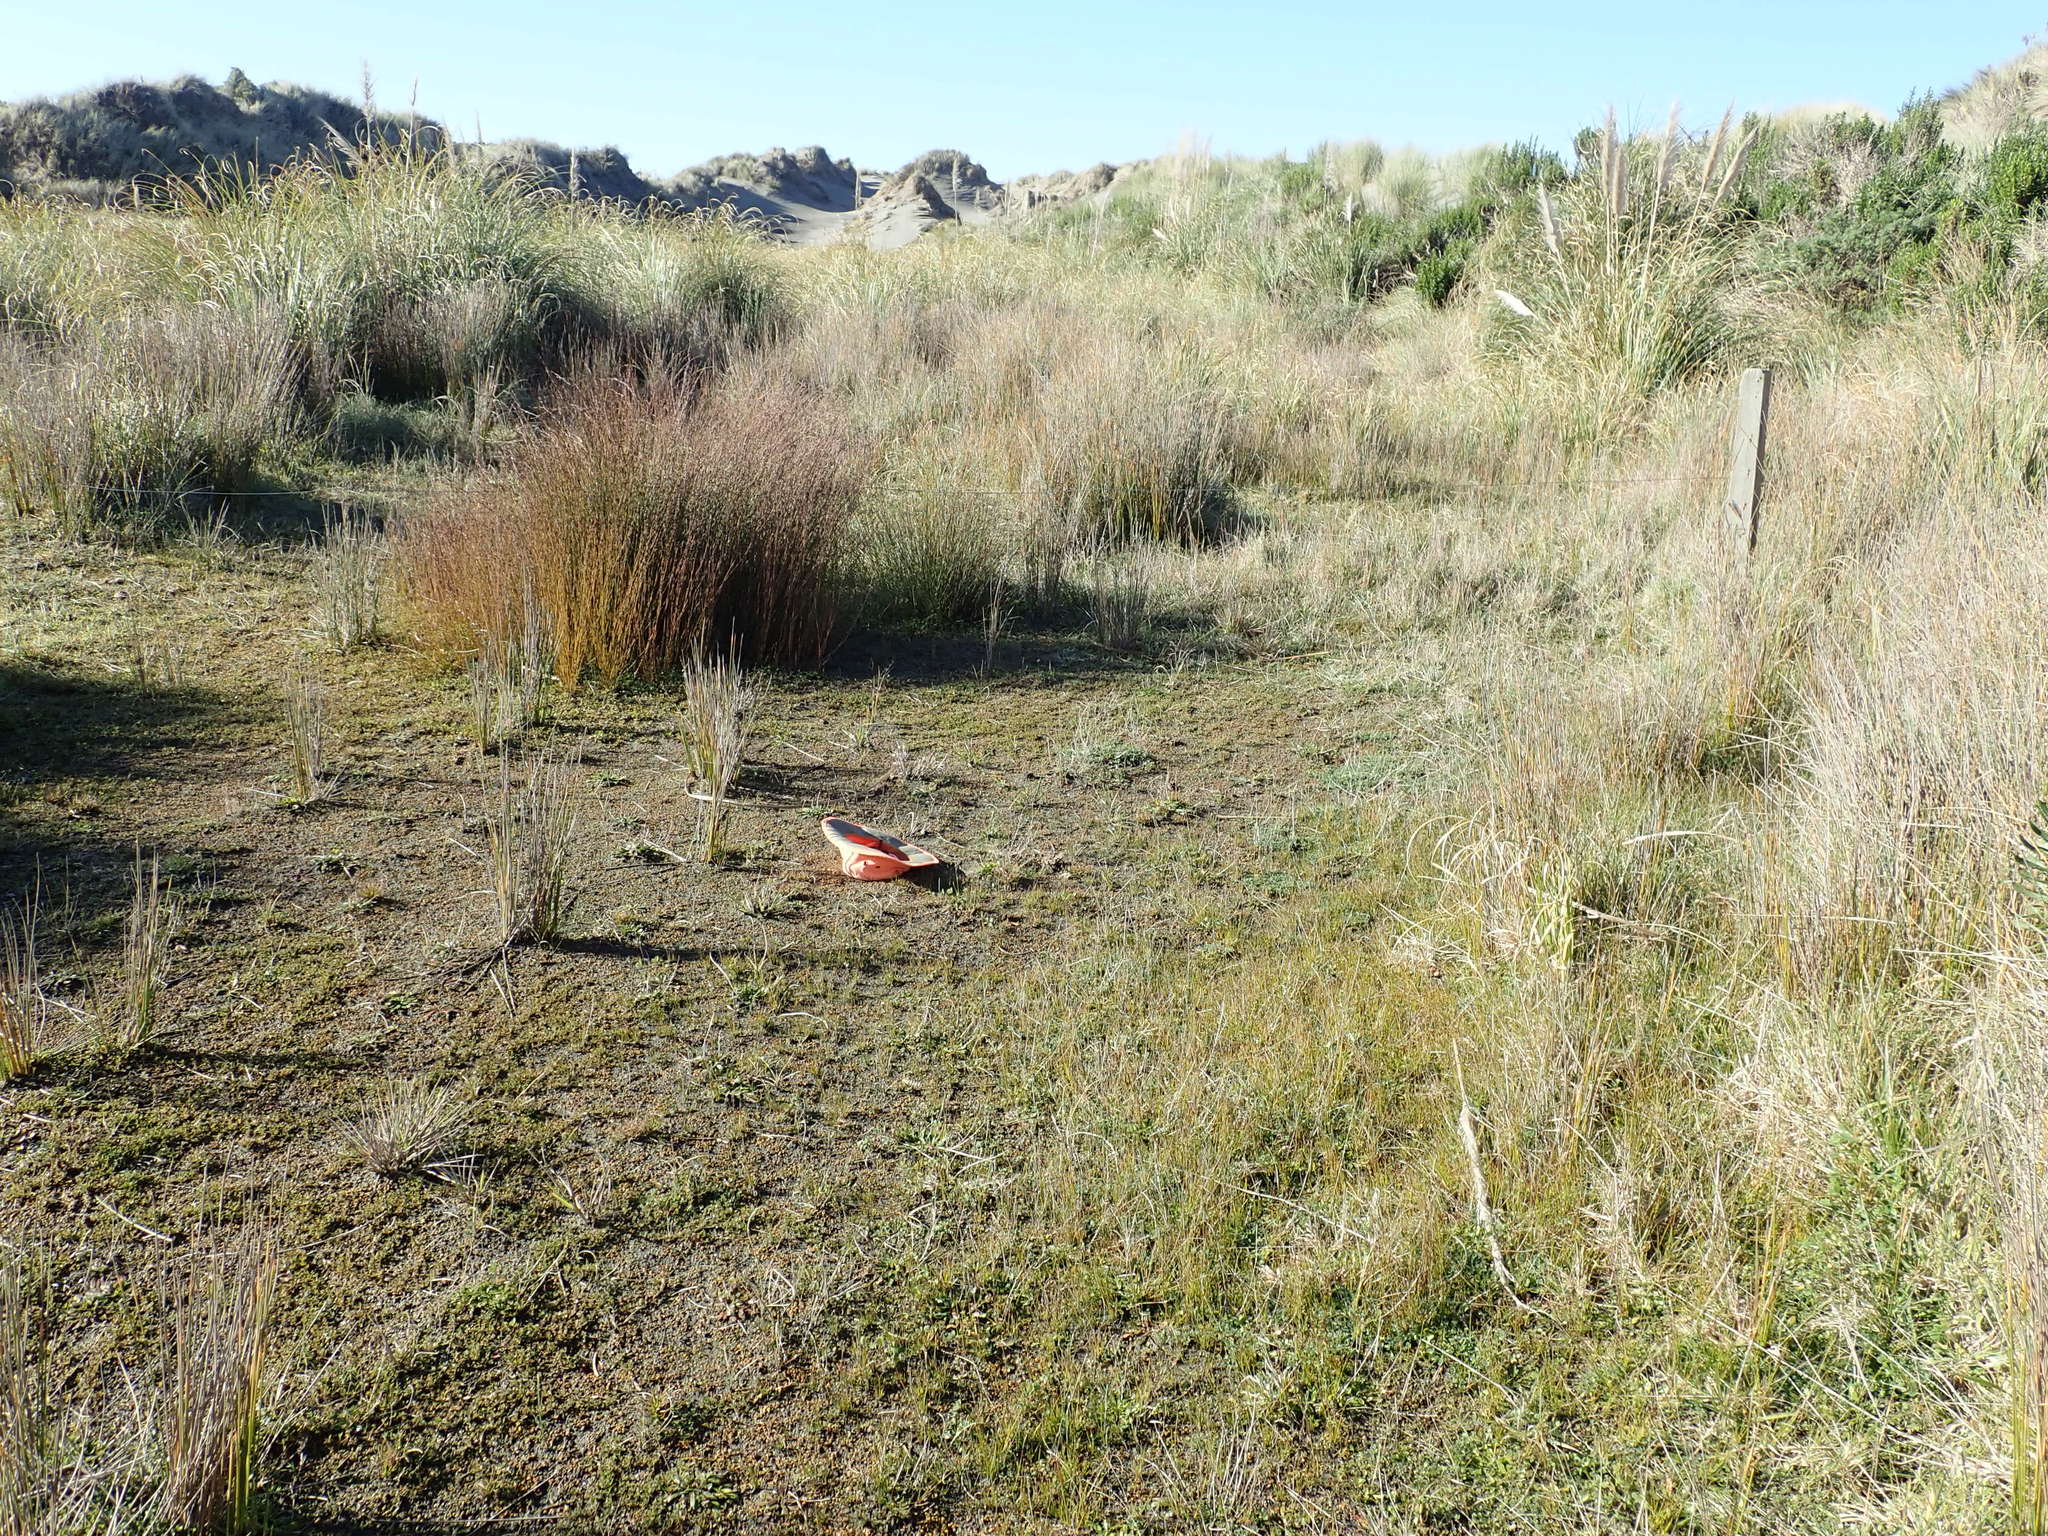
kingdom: Plantae
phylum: Tracheophyta
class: Liliopsida
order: Poales
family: Juncaceae
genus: Juncus
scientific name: Juncus caespiticius
